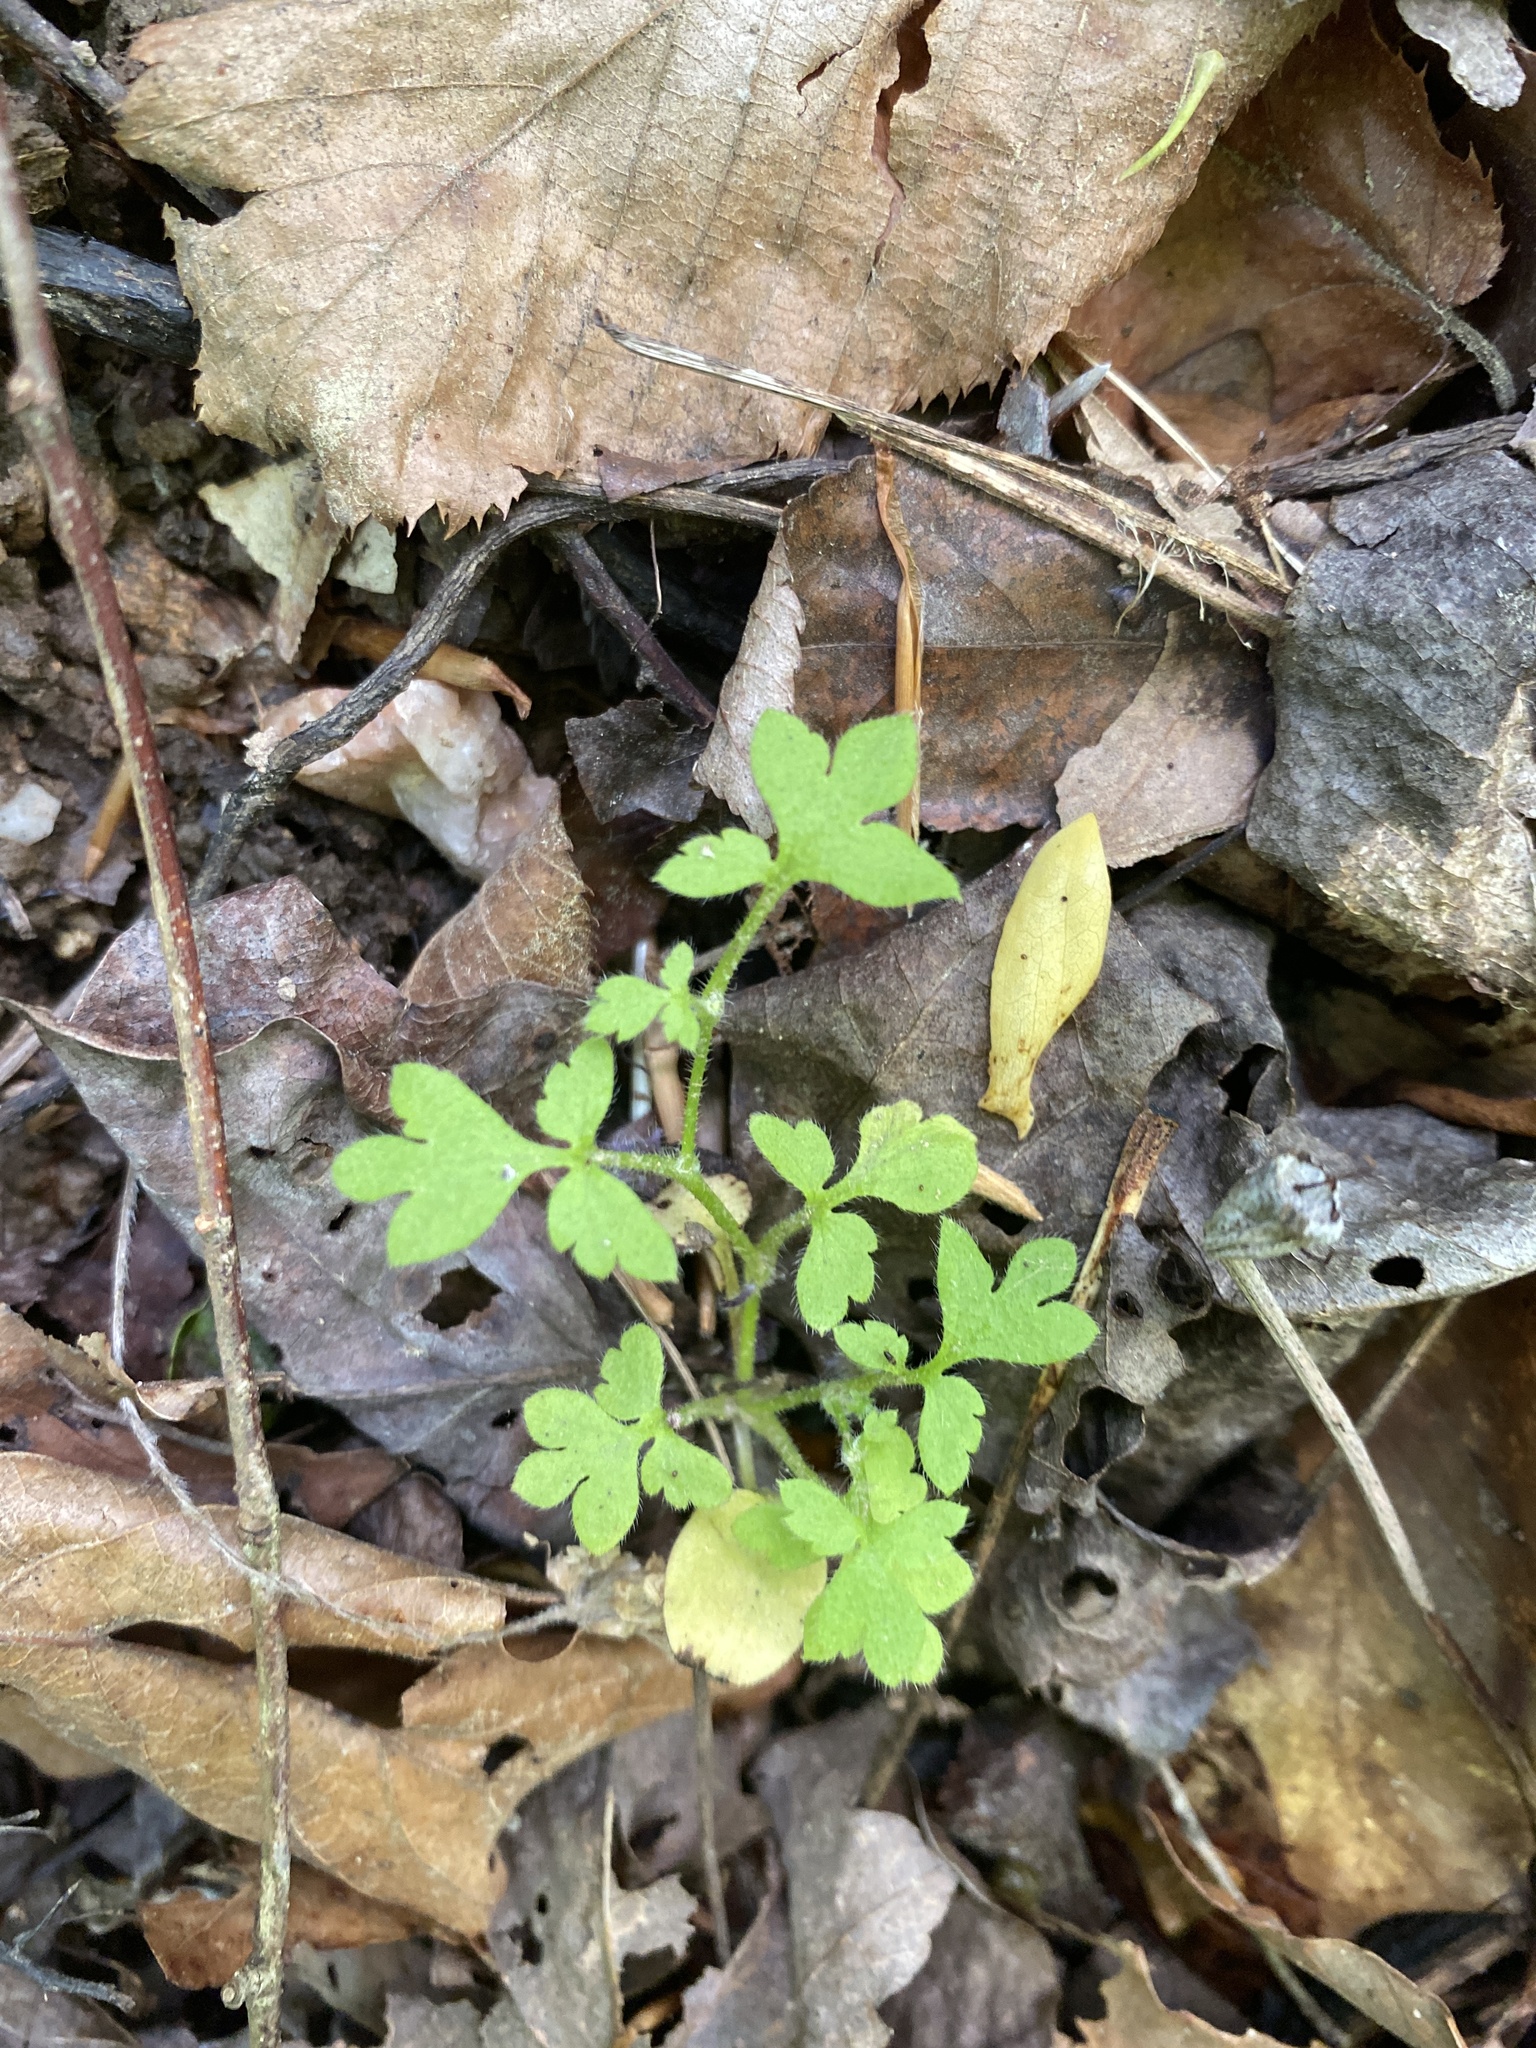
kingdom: Plantae
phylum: Tracheophyta
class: Magnoliopsida
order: Boraginales
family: Hydrophyllaceae
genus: Nemophila
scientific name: Nemophila aphylla
